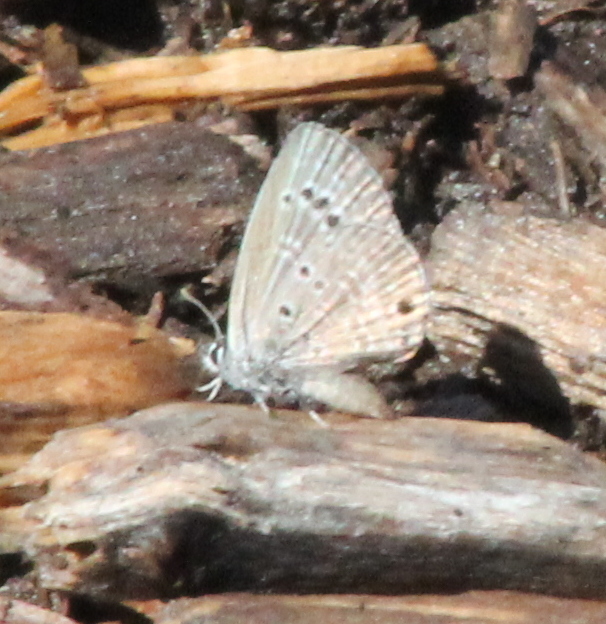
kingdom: Animalia
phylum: Arthropoda
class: Insecta
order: Lepidoptera
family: Lycaenidae
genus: Echinargus
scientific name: Echinargus isola
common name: Reakirt's blue
